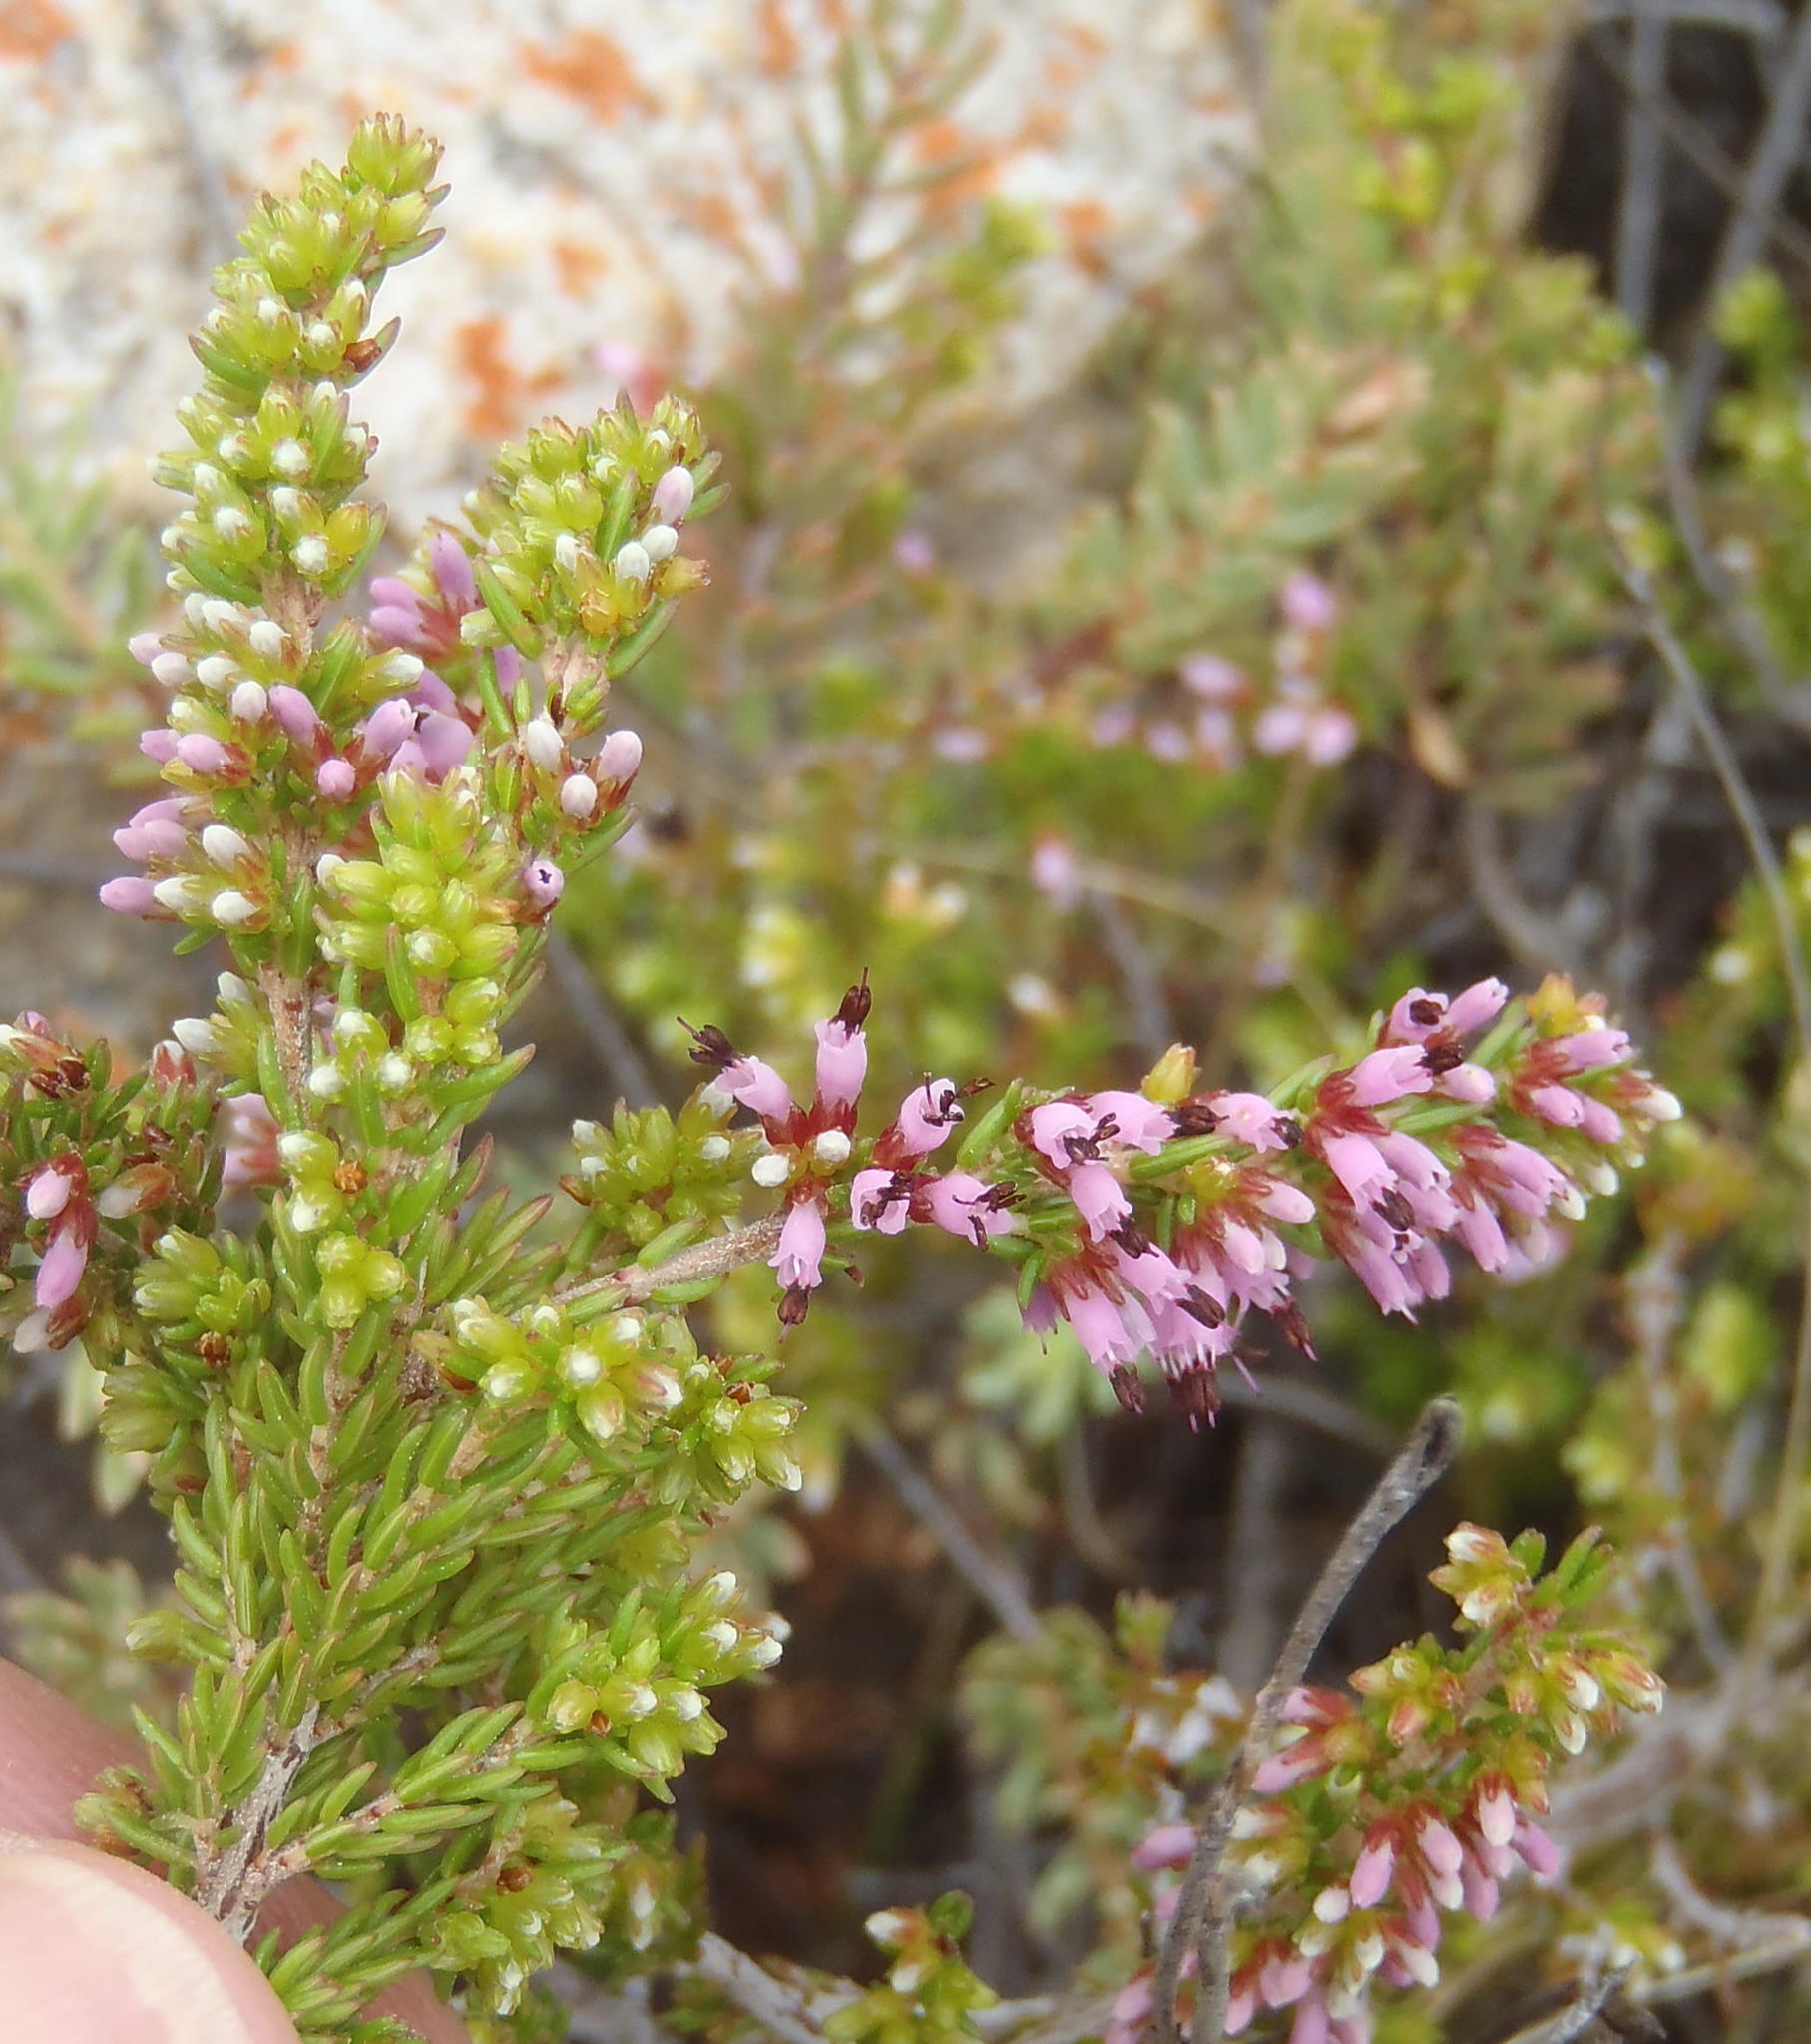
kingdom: Plantae
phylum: Tracheophyta
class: Magnoliopsida
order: Ericales
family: Ericaceae
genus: Erica
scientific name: Erica uberiflora
